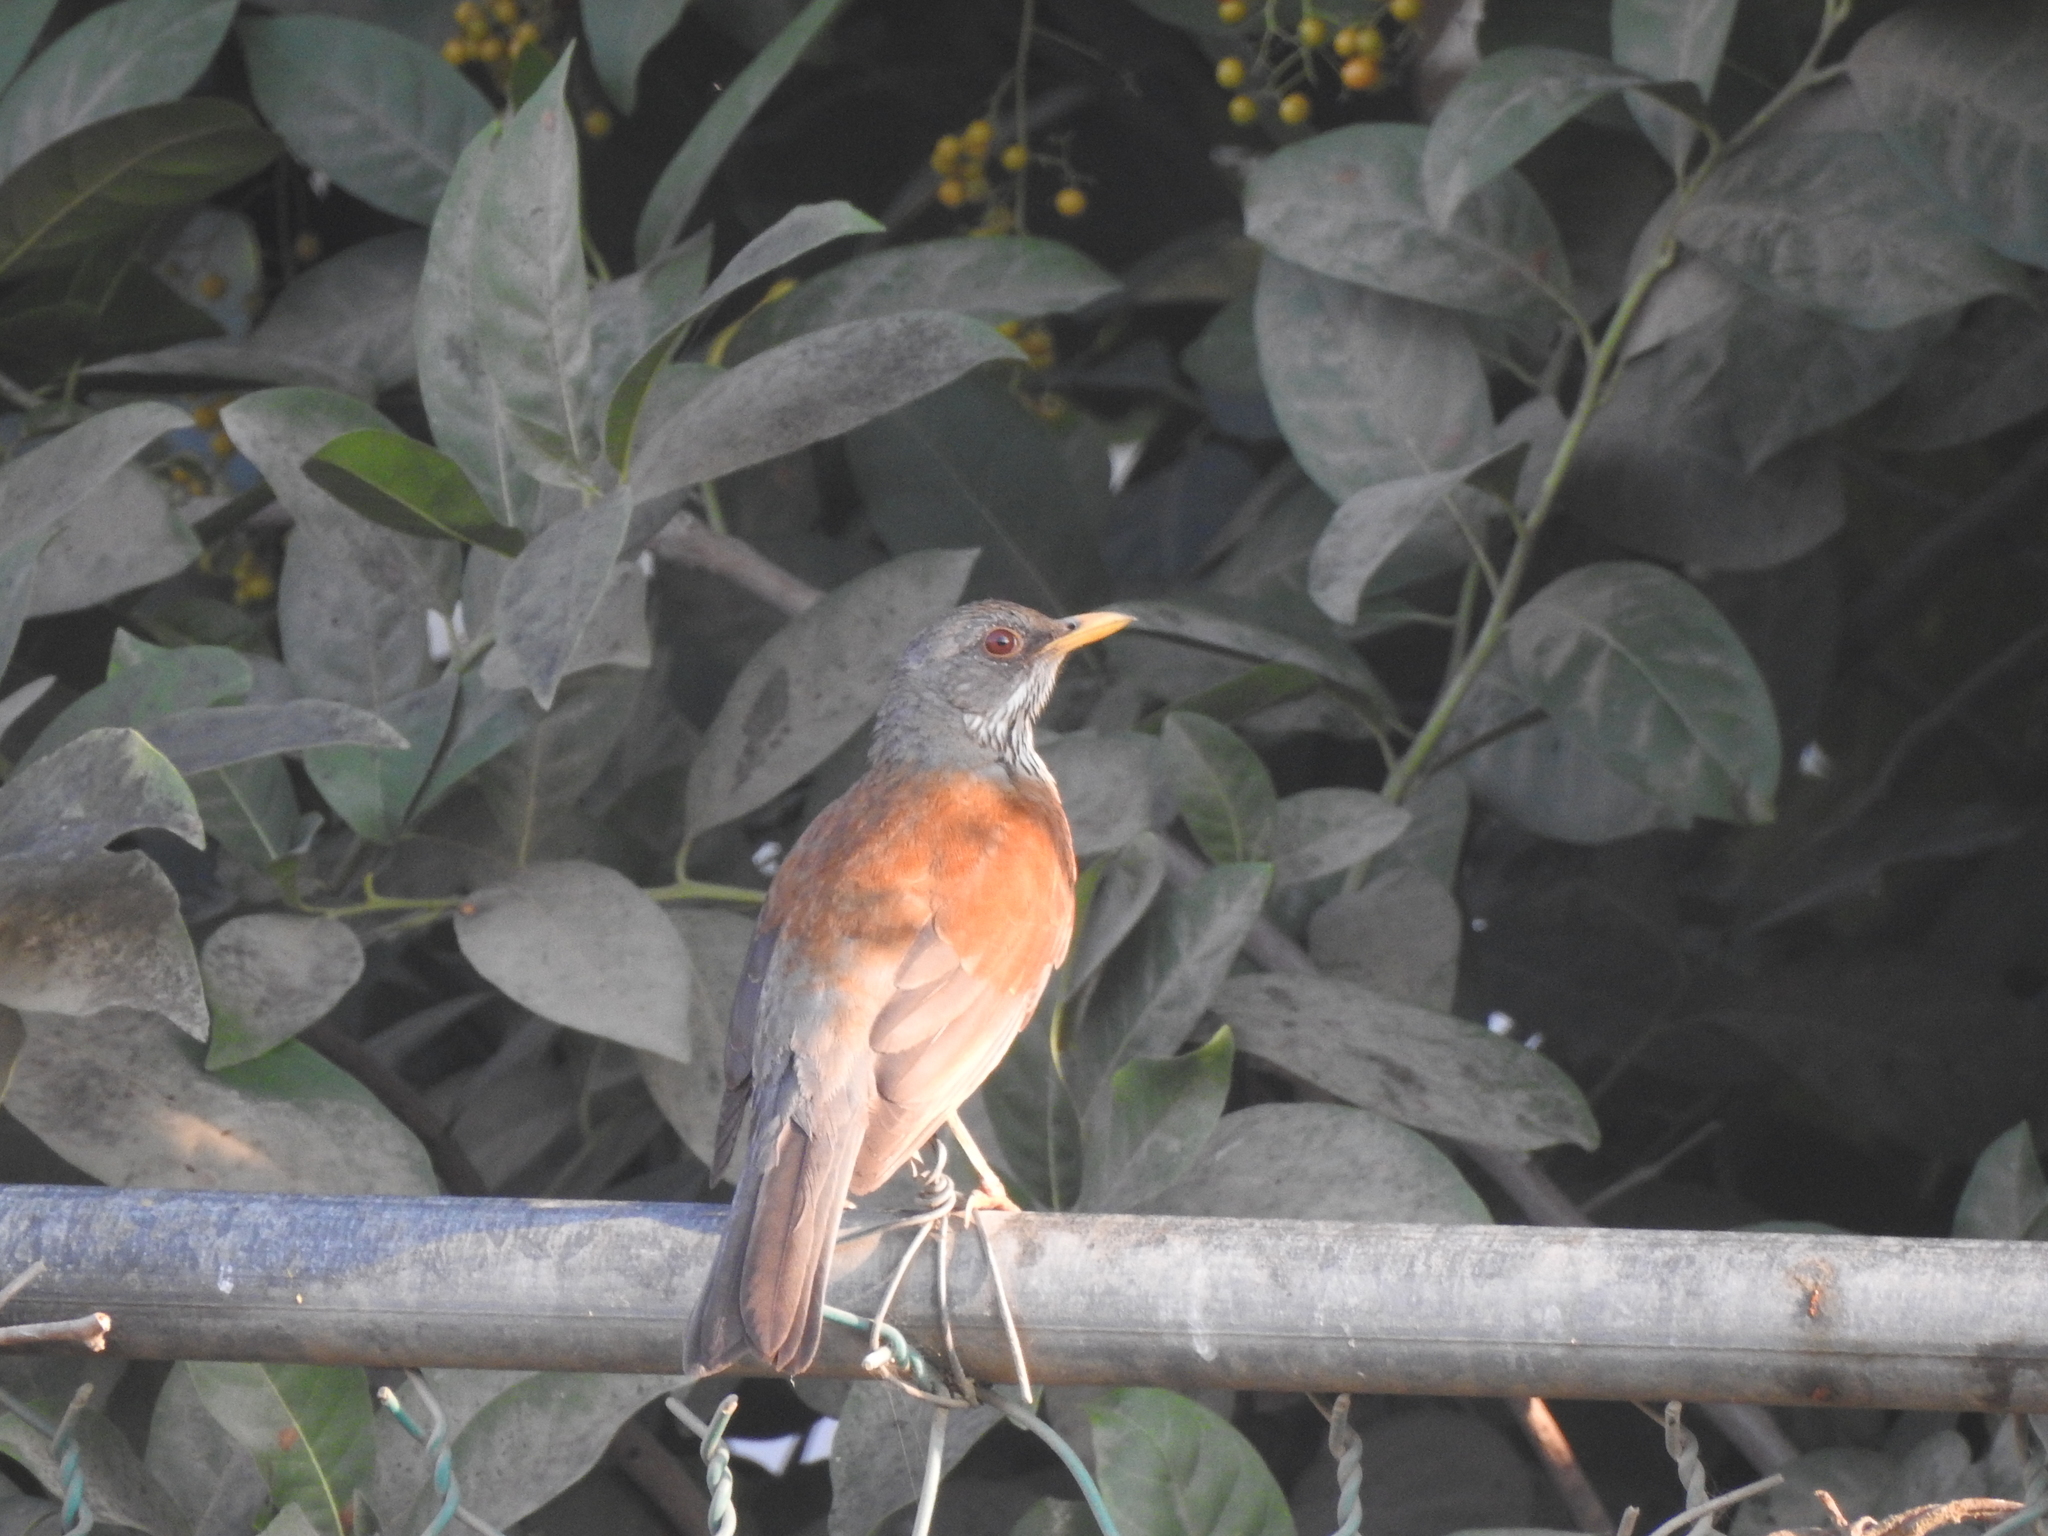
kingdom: Animalia
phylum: Chordata
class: Aves
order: Passeriformes
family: Turdidae
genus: Turdus
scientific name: Turdus rufopalliatus
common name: Rufous-backed robin
